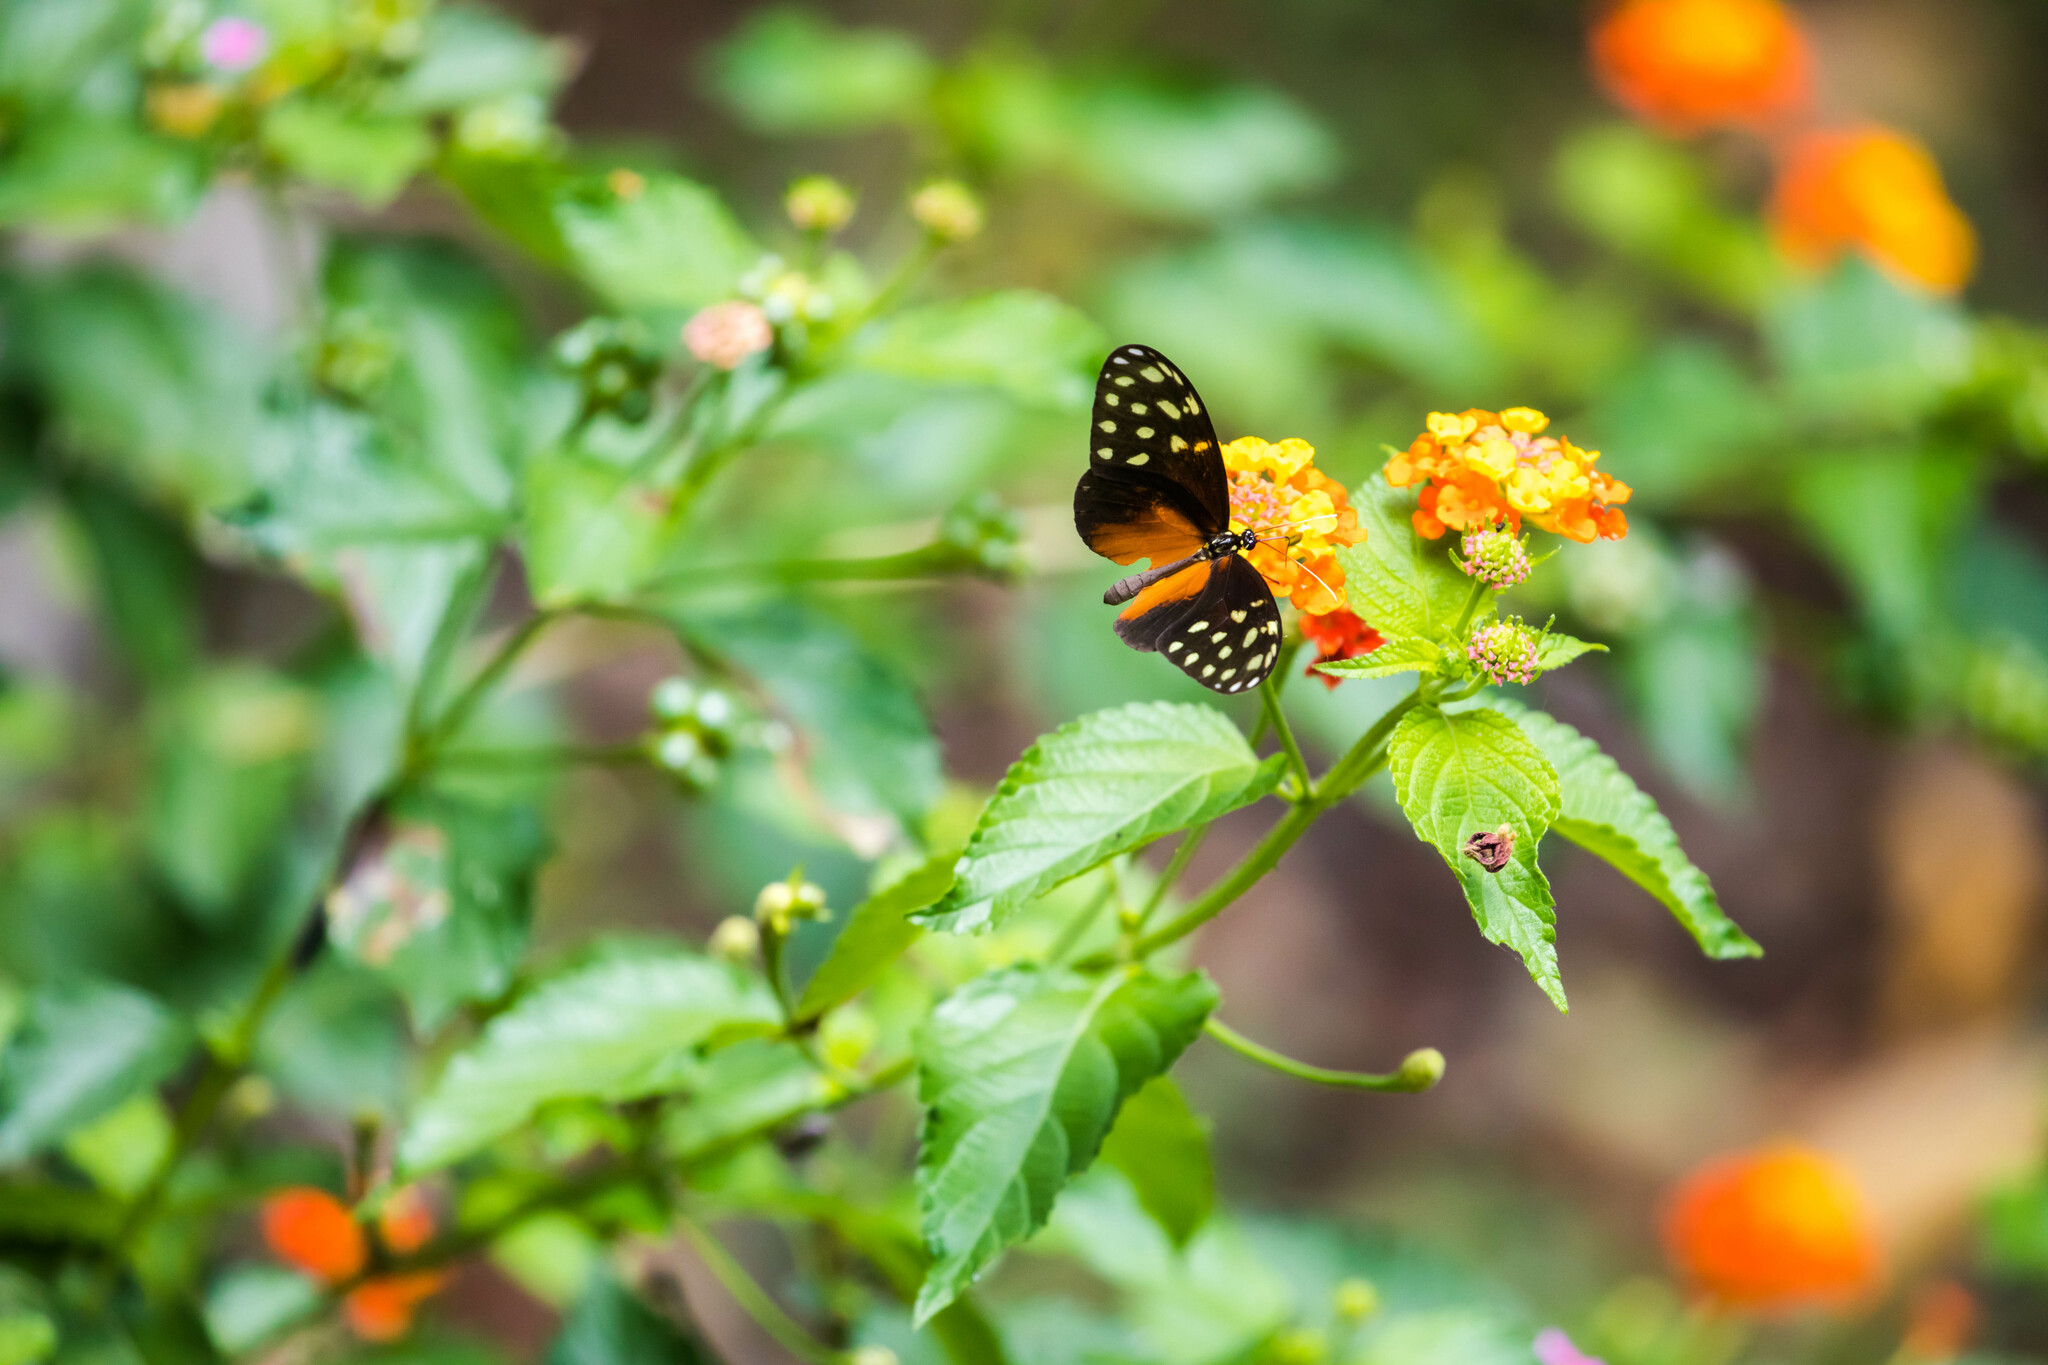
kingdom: Animalia
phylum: Arthropoda
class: Insecta
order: Lepidoptera
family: Nymphalidae
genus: Callithomia
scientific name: Callithomia hezia
